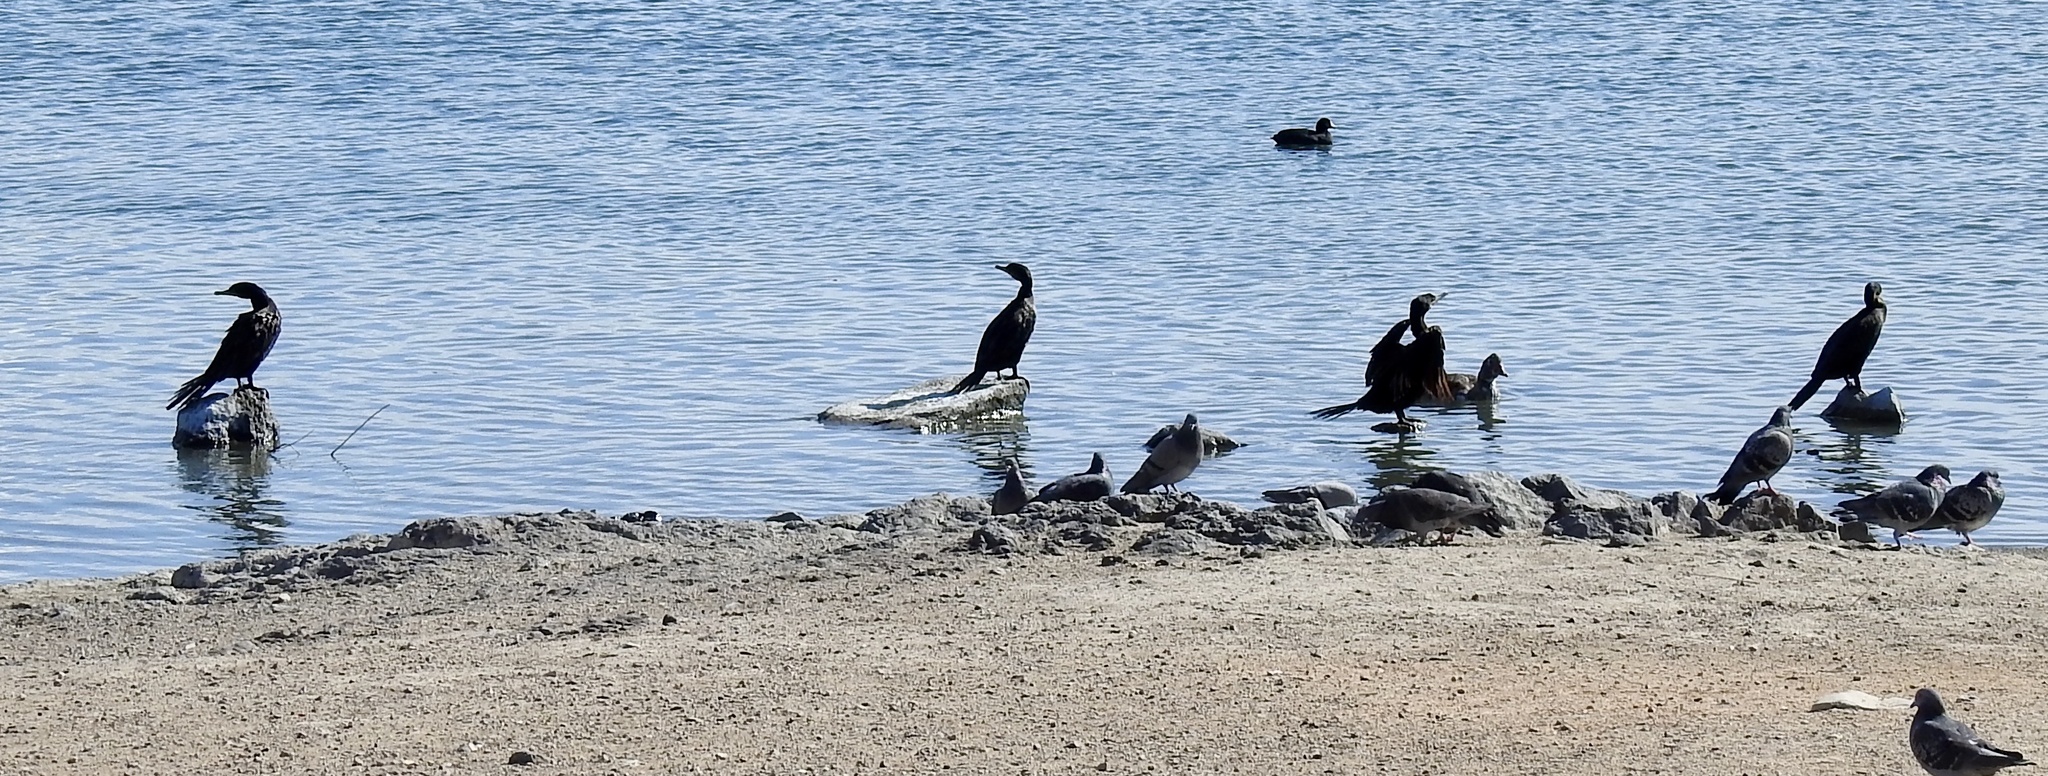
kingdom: Animalia
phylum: Chordata
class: Aves
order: Suliformes
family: Phalacrocoracidae
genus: Phalacrocorax
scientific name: Phalacrocorax brasilianus
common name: Neotropic cormorant
